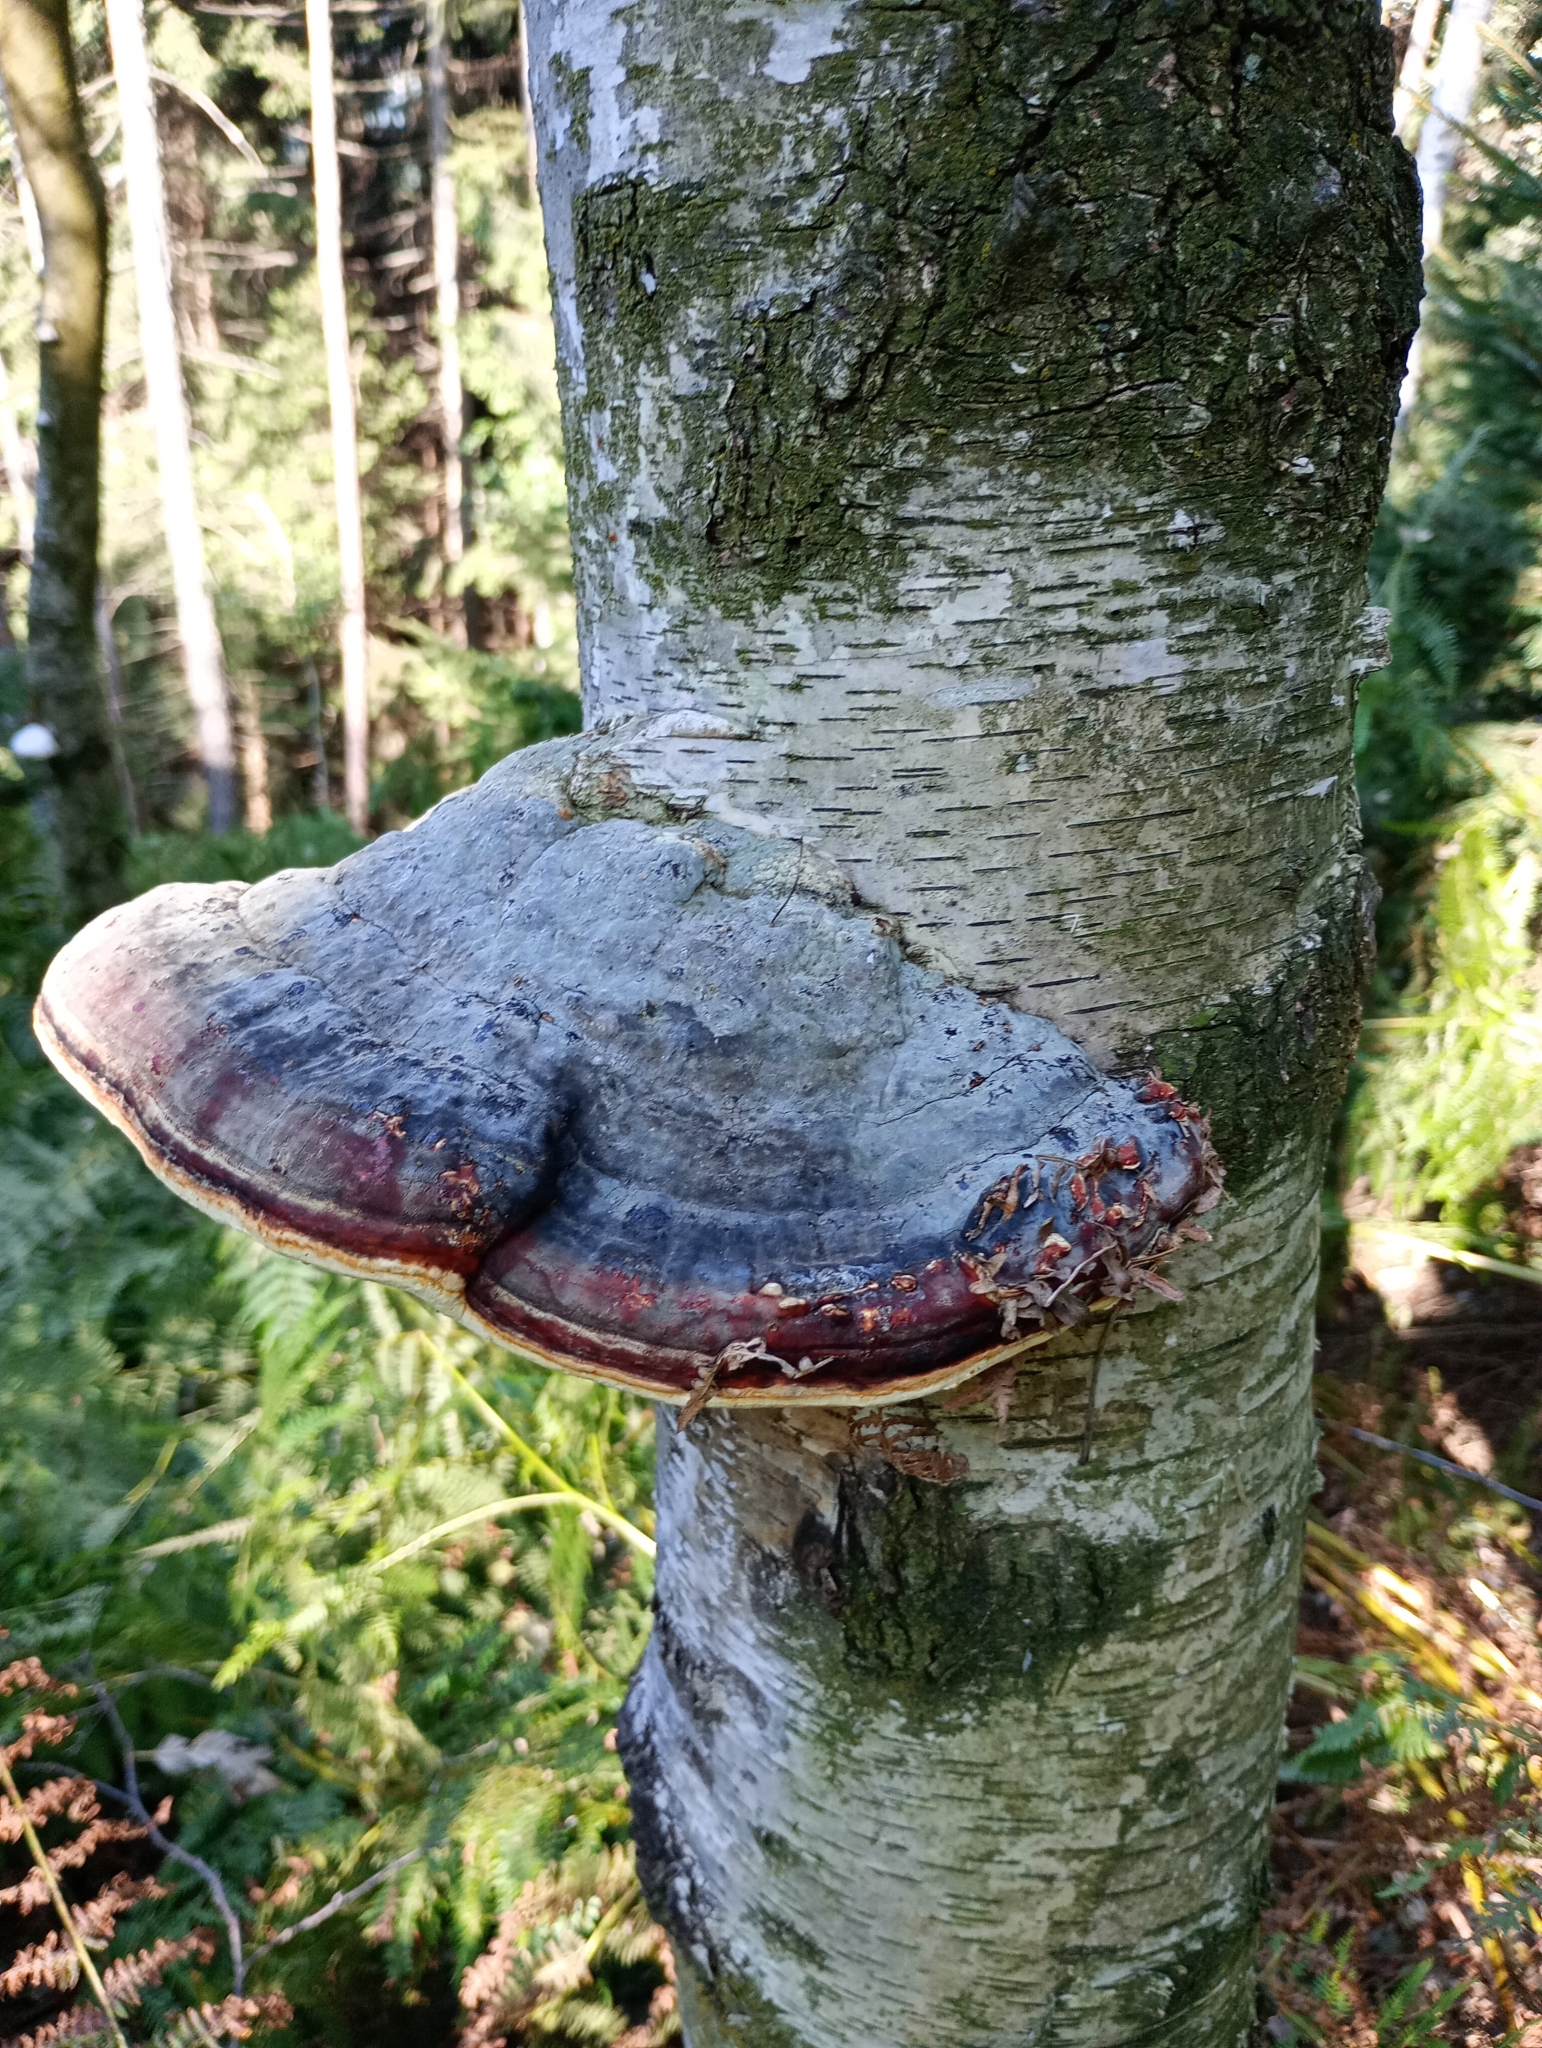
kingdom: Fungi
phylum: Basidiomycota
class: Agaricomycetes
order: Polyporales
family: Fomitopsidaceae
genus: Fomitopsis
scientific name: Fomitopsis pinicola
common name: Red-belted bracket
